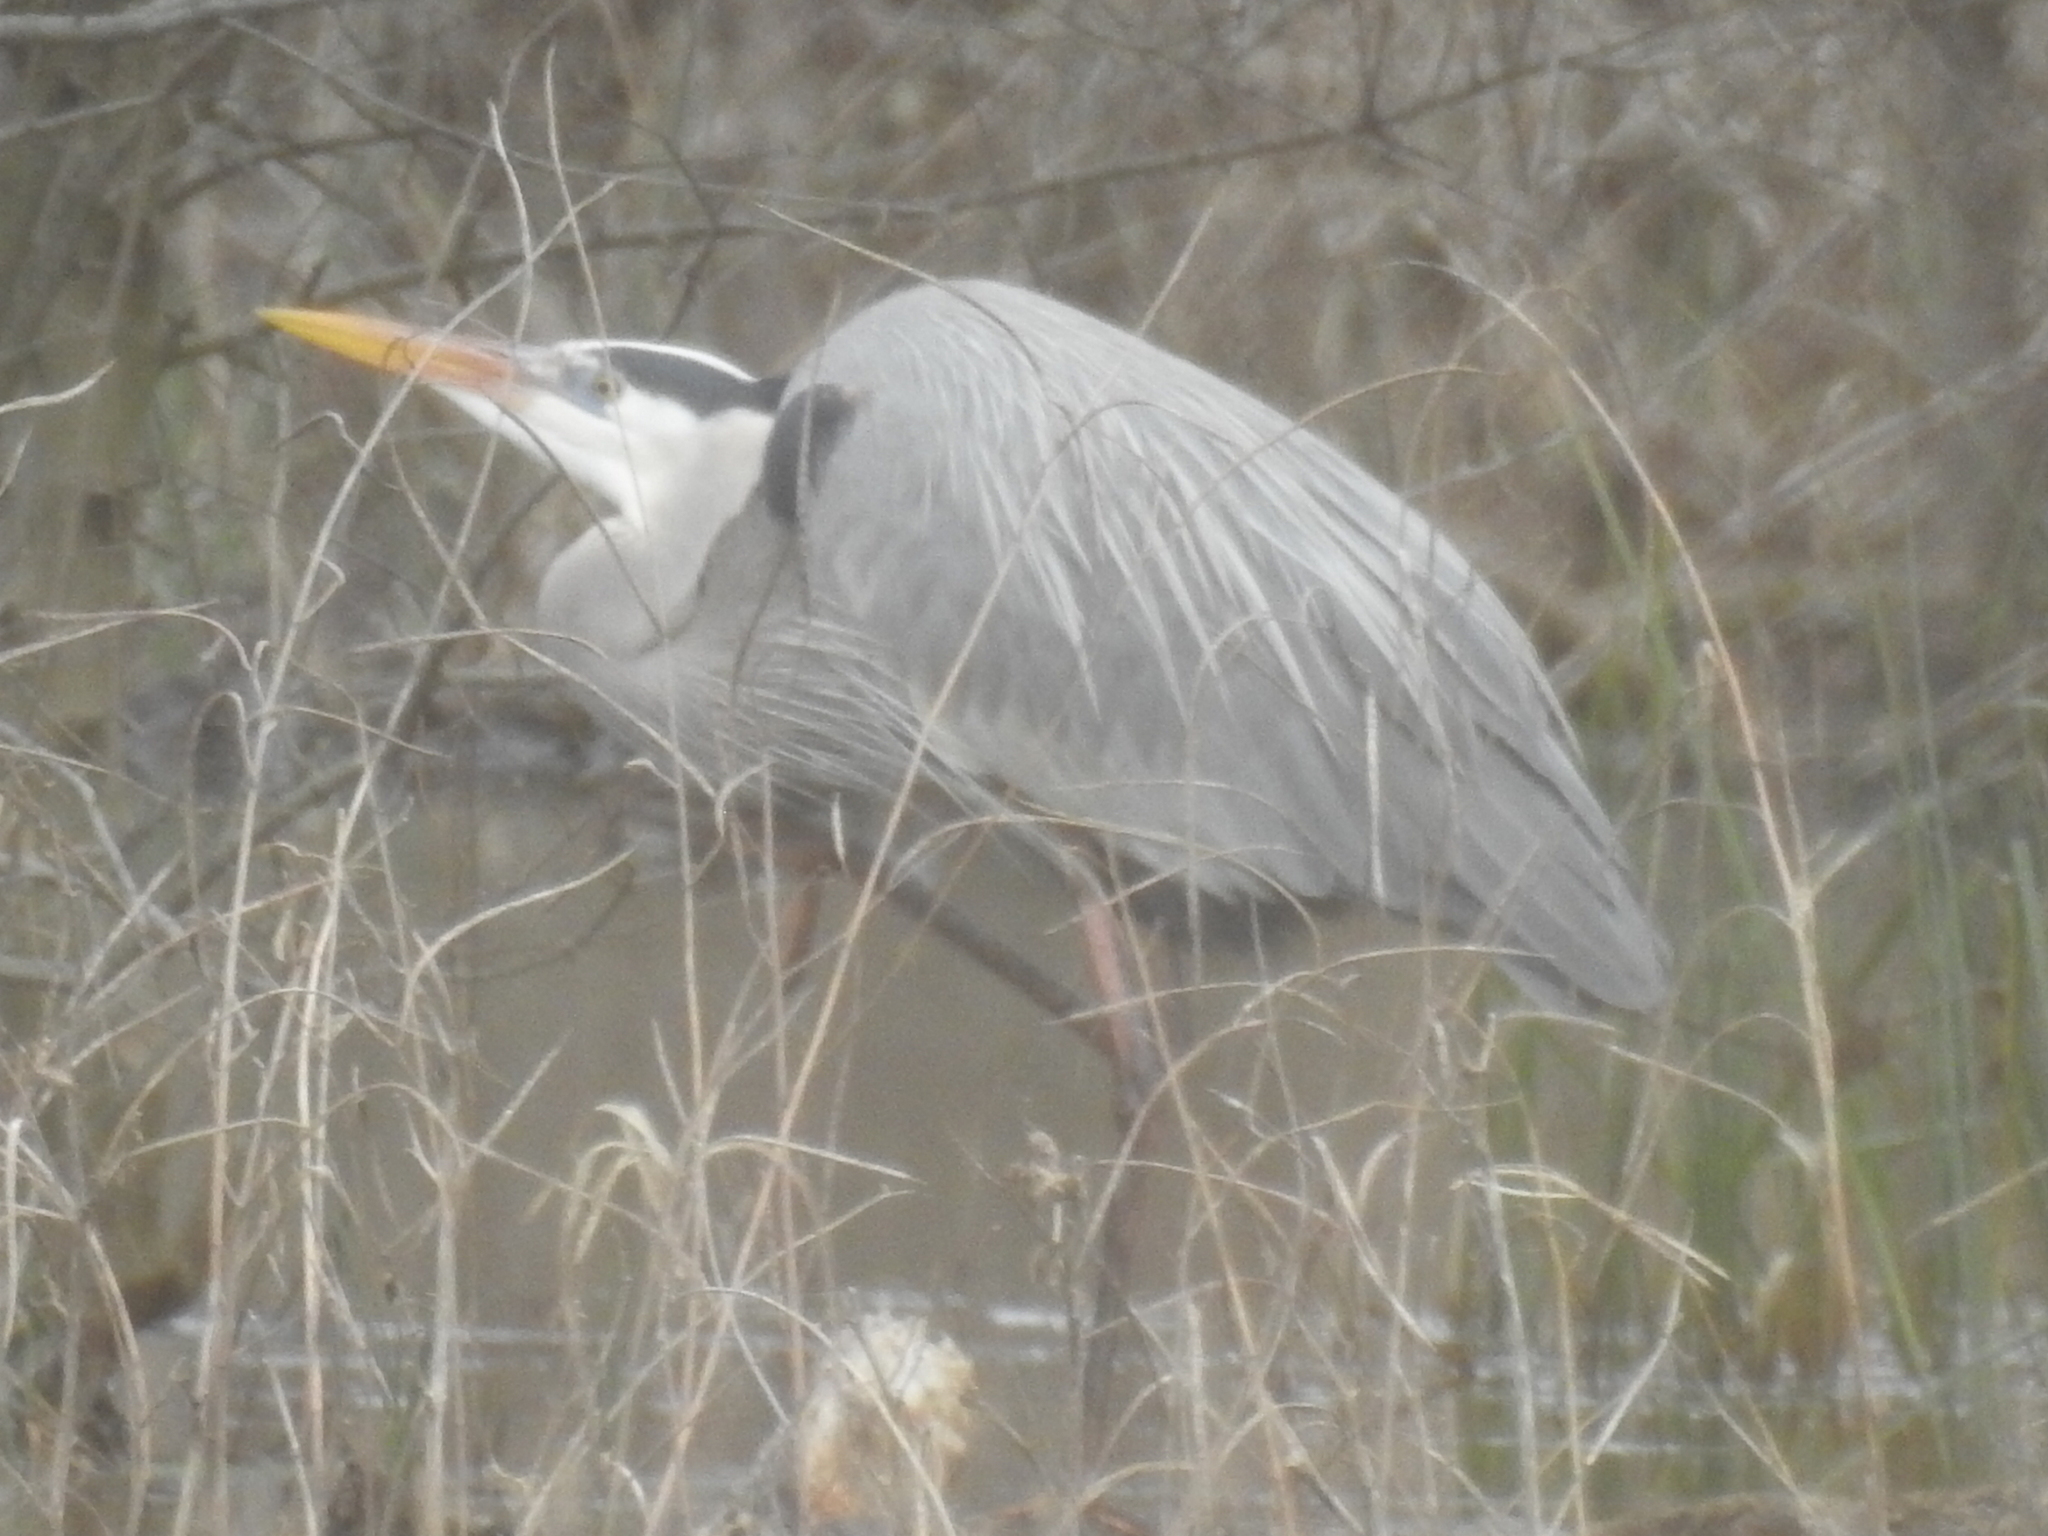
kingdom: Animalia
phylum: Chordata
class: Aves
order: Pelecaniformes
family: Ardeidae
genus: Ardea
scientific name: Ardea herodias
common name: Great blue heron
